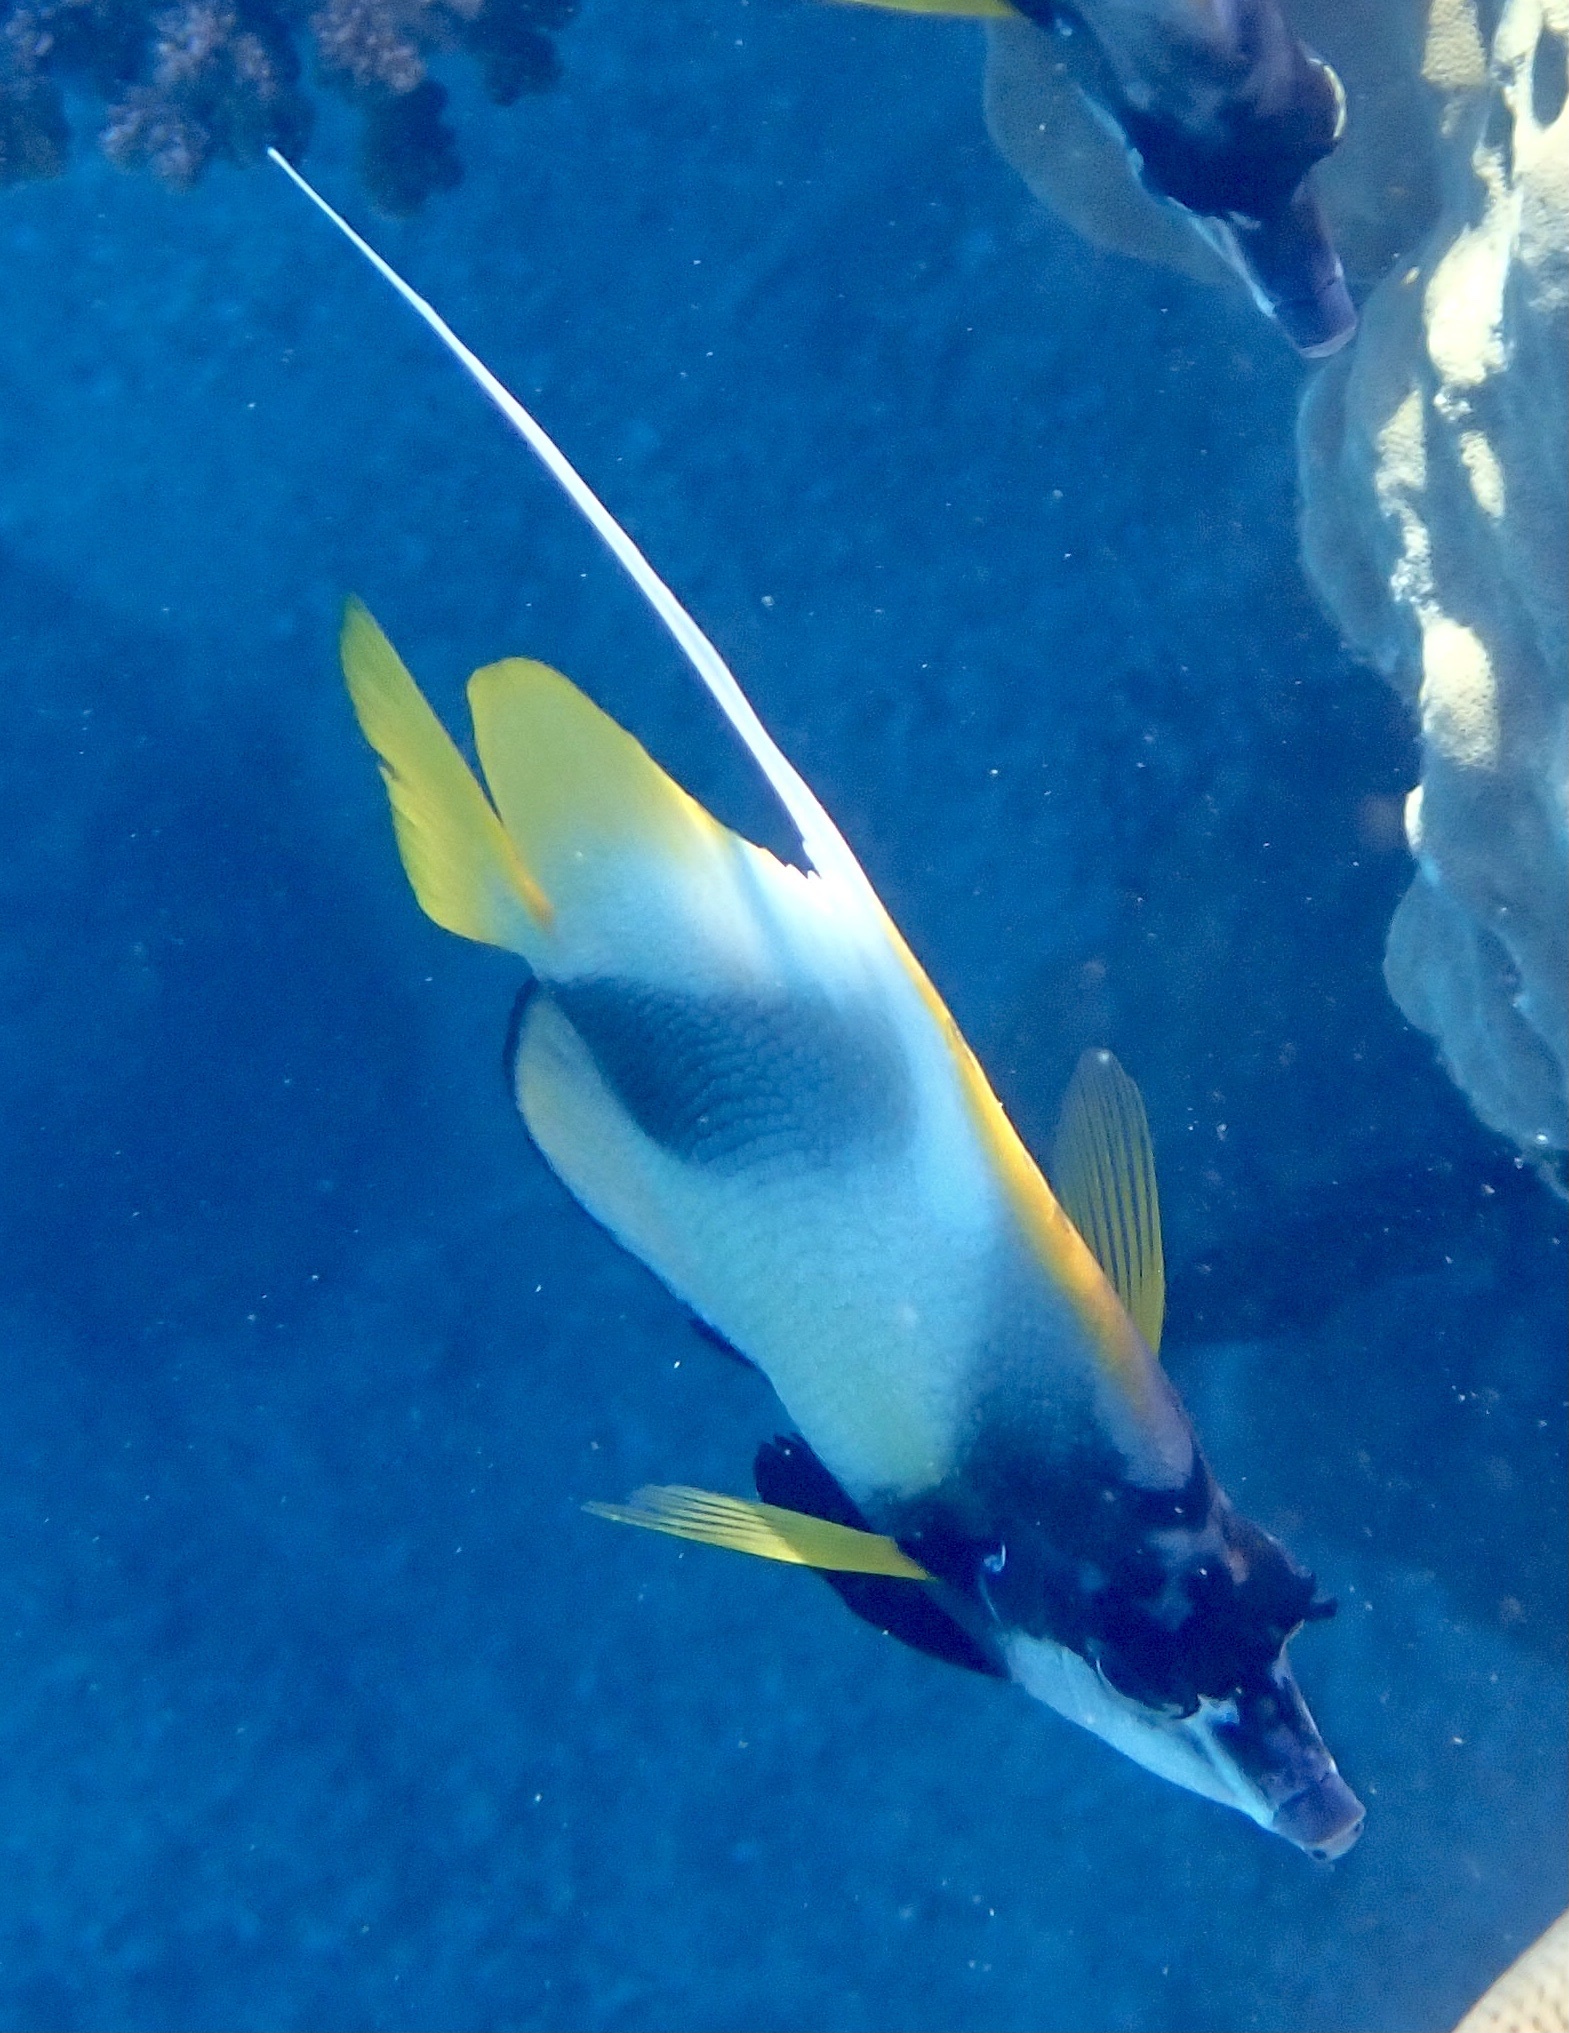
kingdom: Animalia
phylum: Chordata
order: Perciformes
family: Chaetodontidae
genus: Heniochus
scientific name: Heniochus intermedius
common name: Red sea bannerfish
